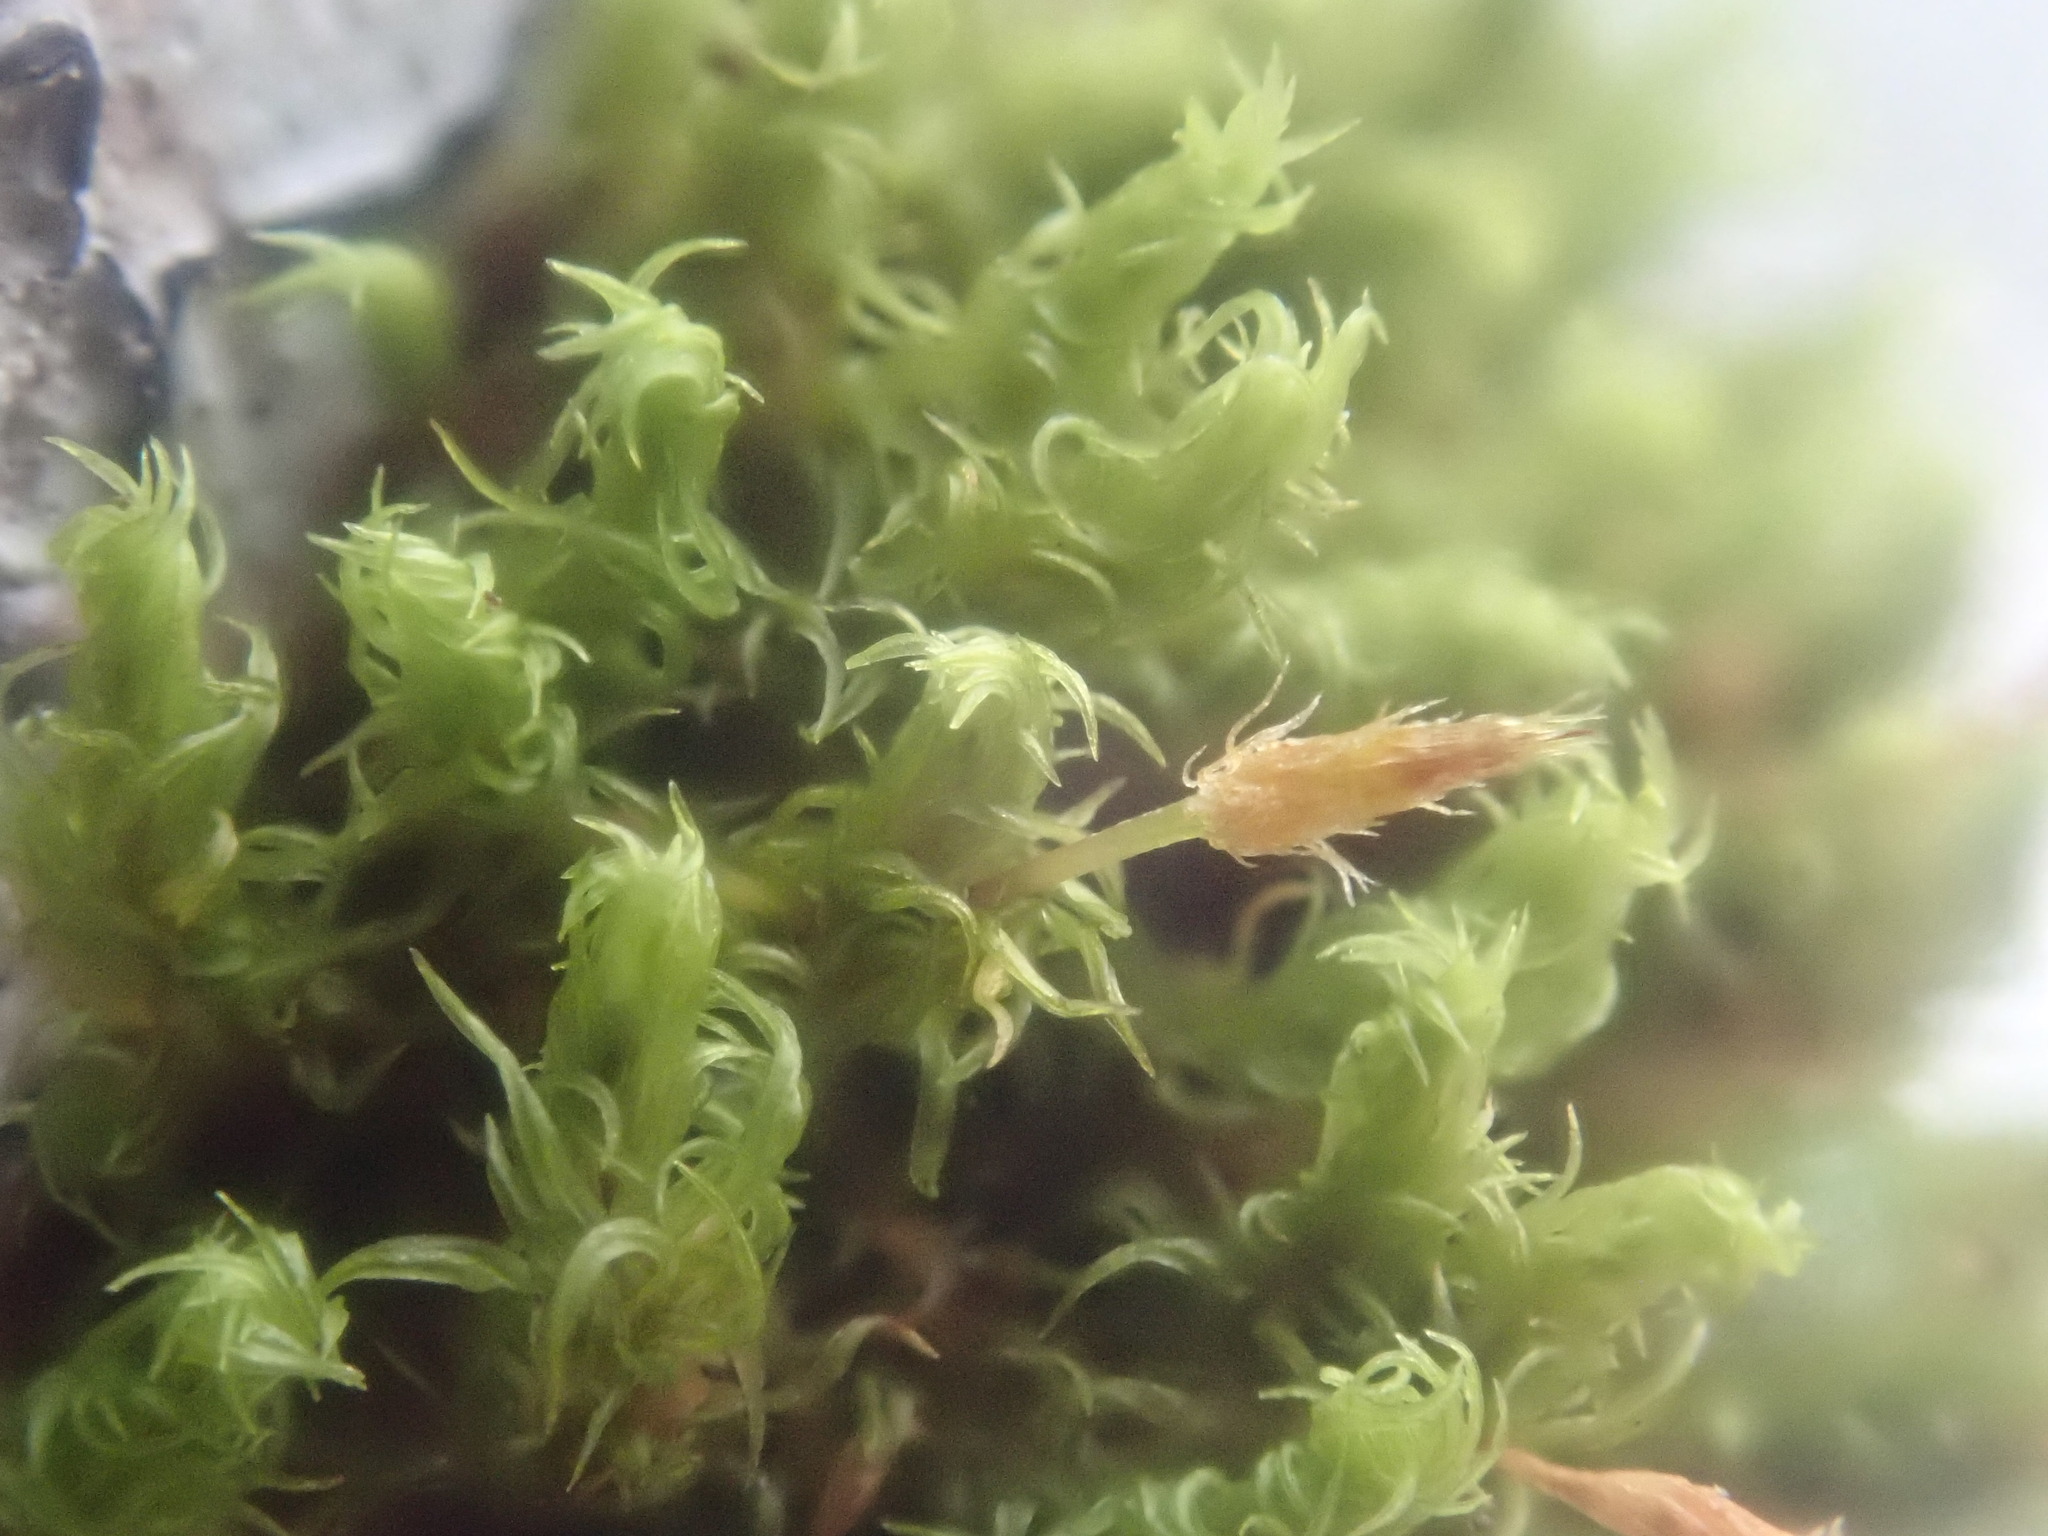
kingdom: Plantae
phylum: Bryophyta
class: Bryopsida
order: Orthotrichales
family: Orthotrichaceae
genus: Ulota
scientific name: Ulota crispa
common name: Crisped pincushion moss
